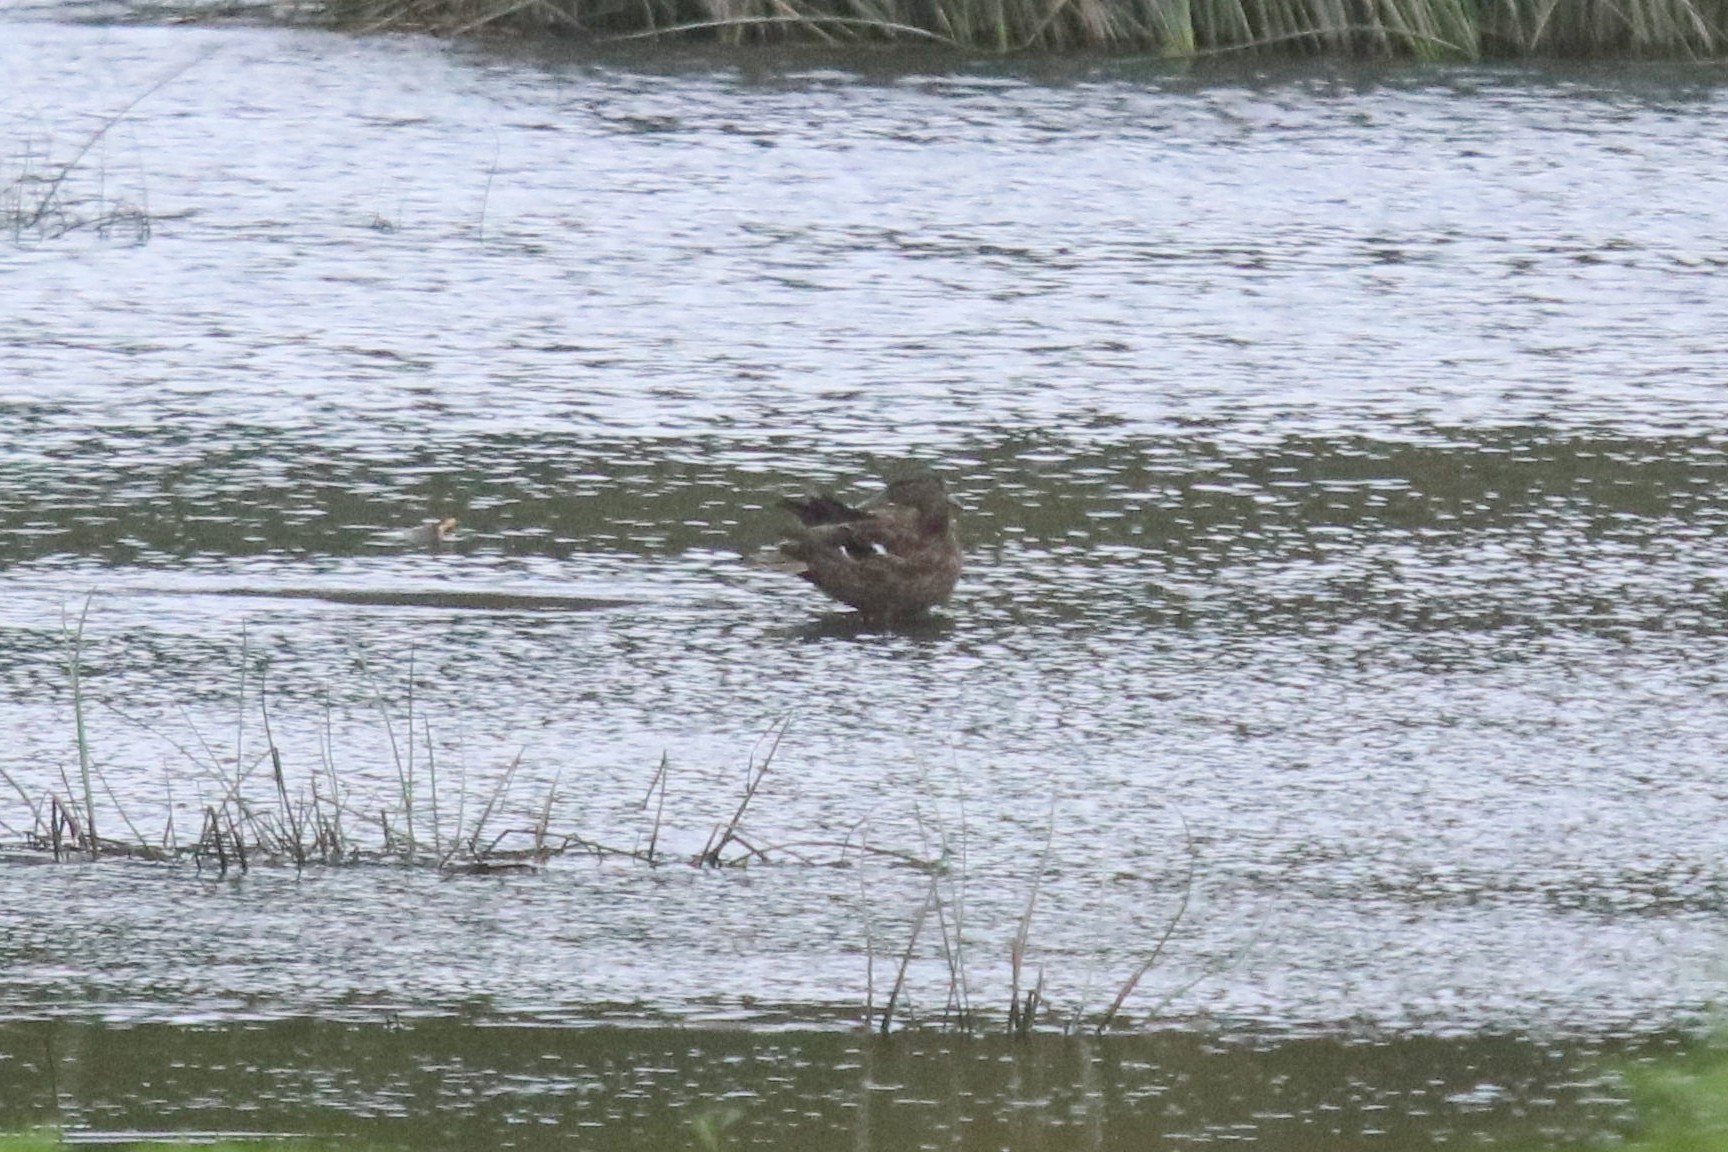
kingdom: Animalia
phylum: Chordata
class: Aves
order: Anseriformes
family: Anatidae
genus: Anas
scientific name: Anas platyrhynchos
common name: Mallard
